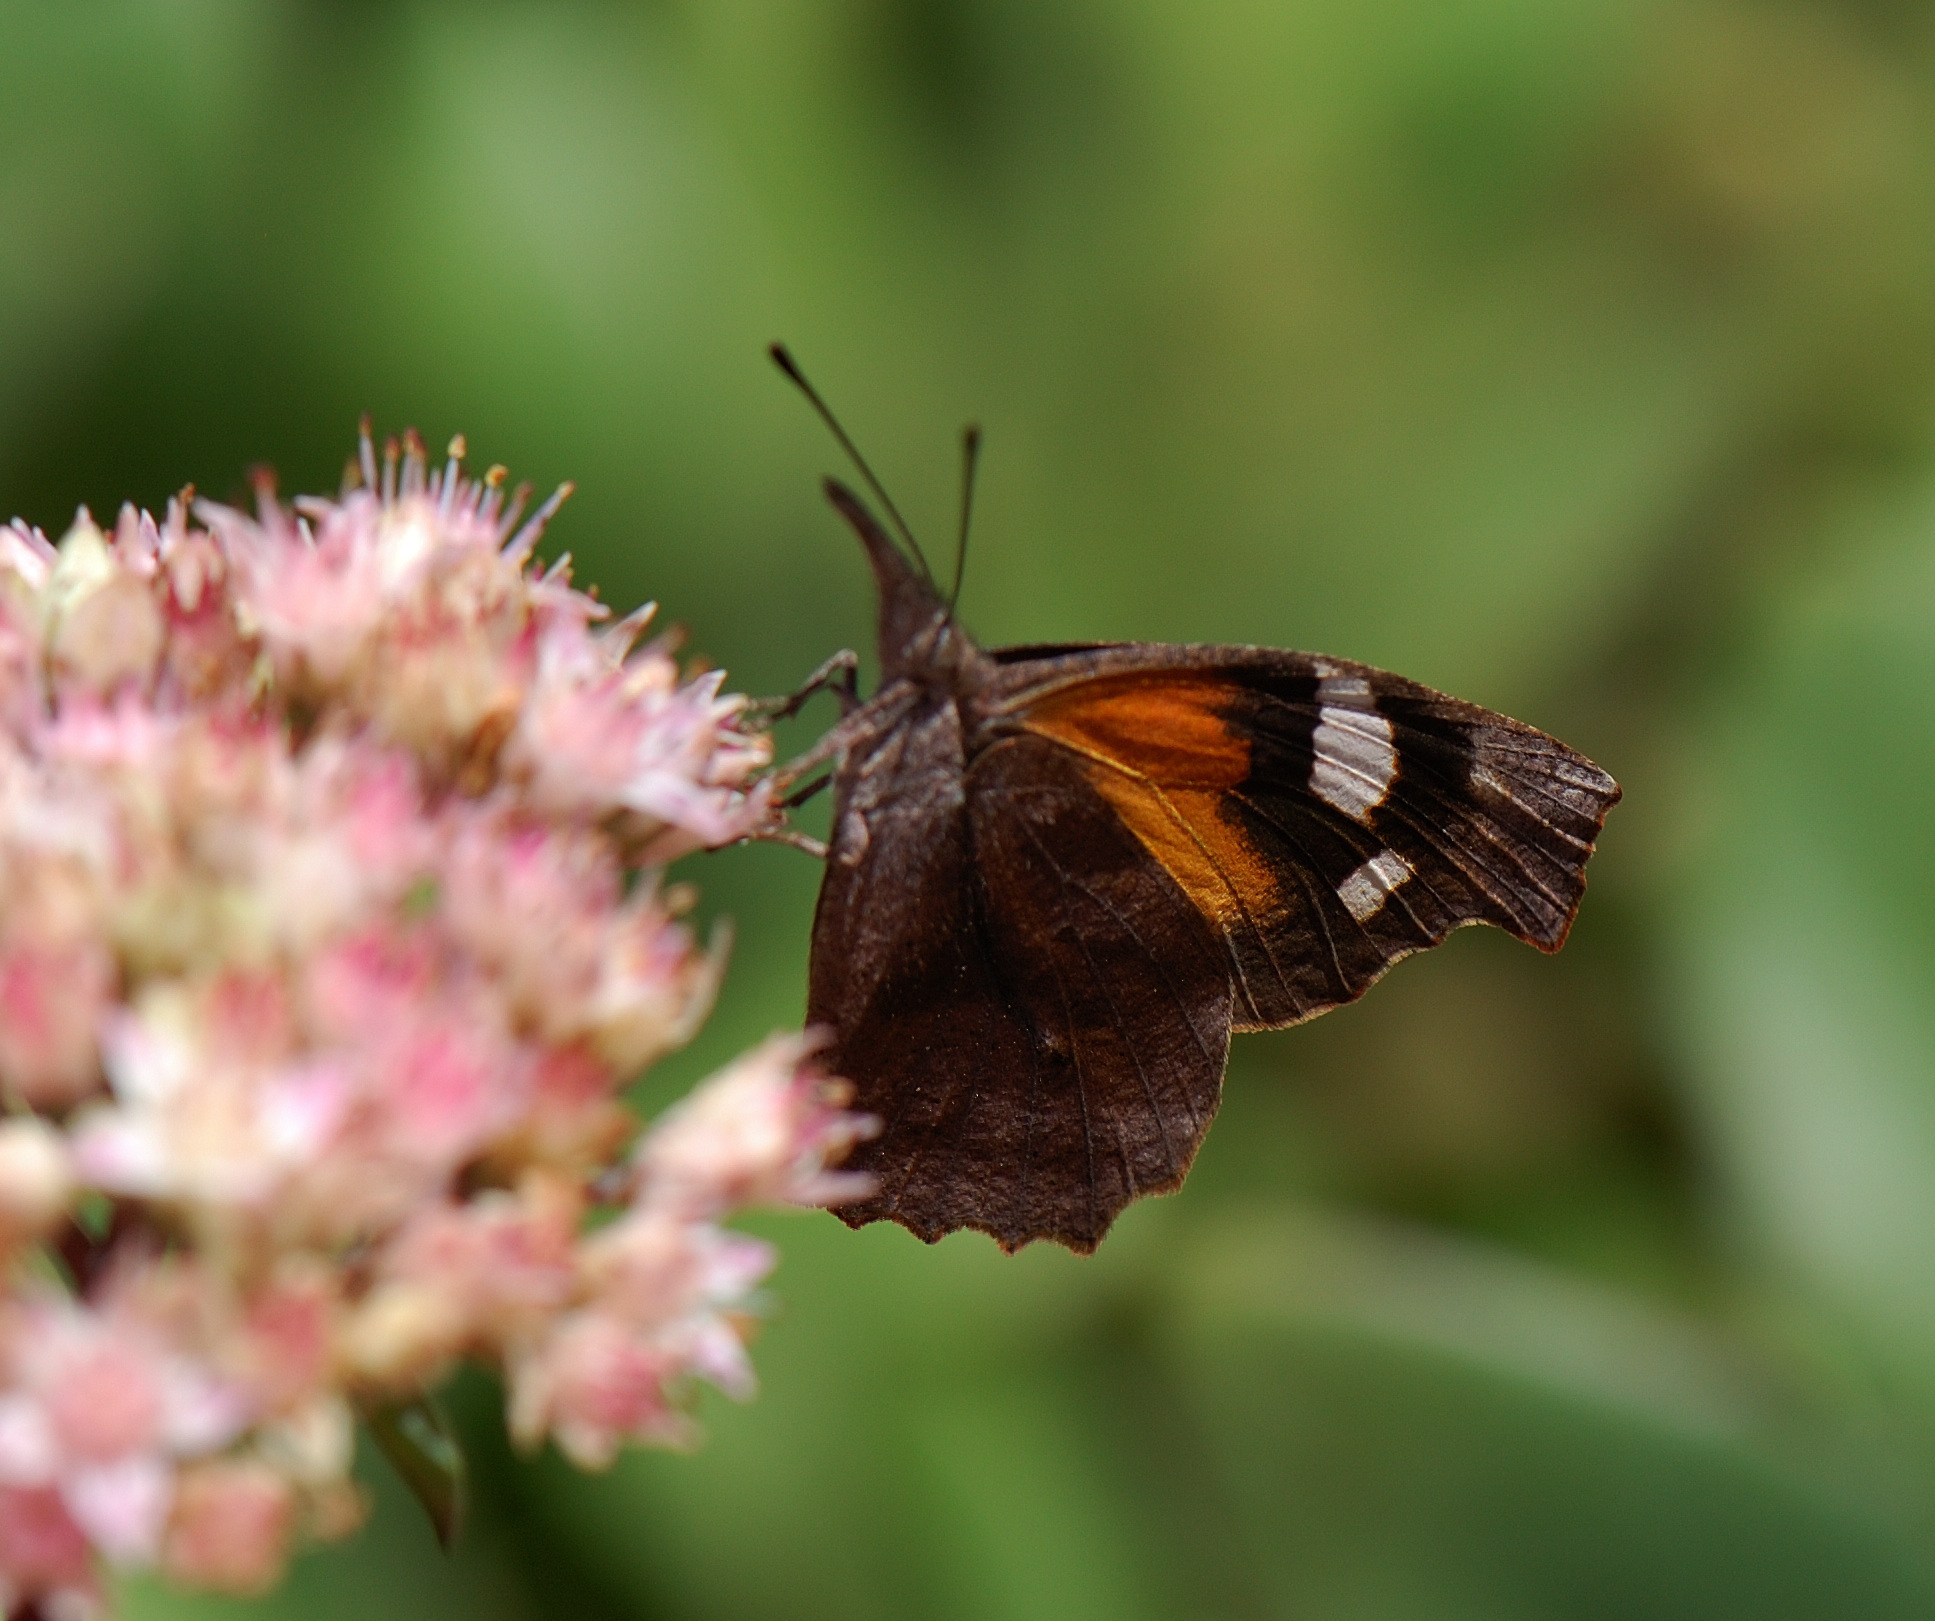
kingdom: Animalia
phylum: Arthropoda
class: Insecta
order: Lepidoptera
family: Nymphalidae
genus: Libytheana
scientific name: Libytheana carinenta
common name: American snout
